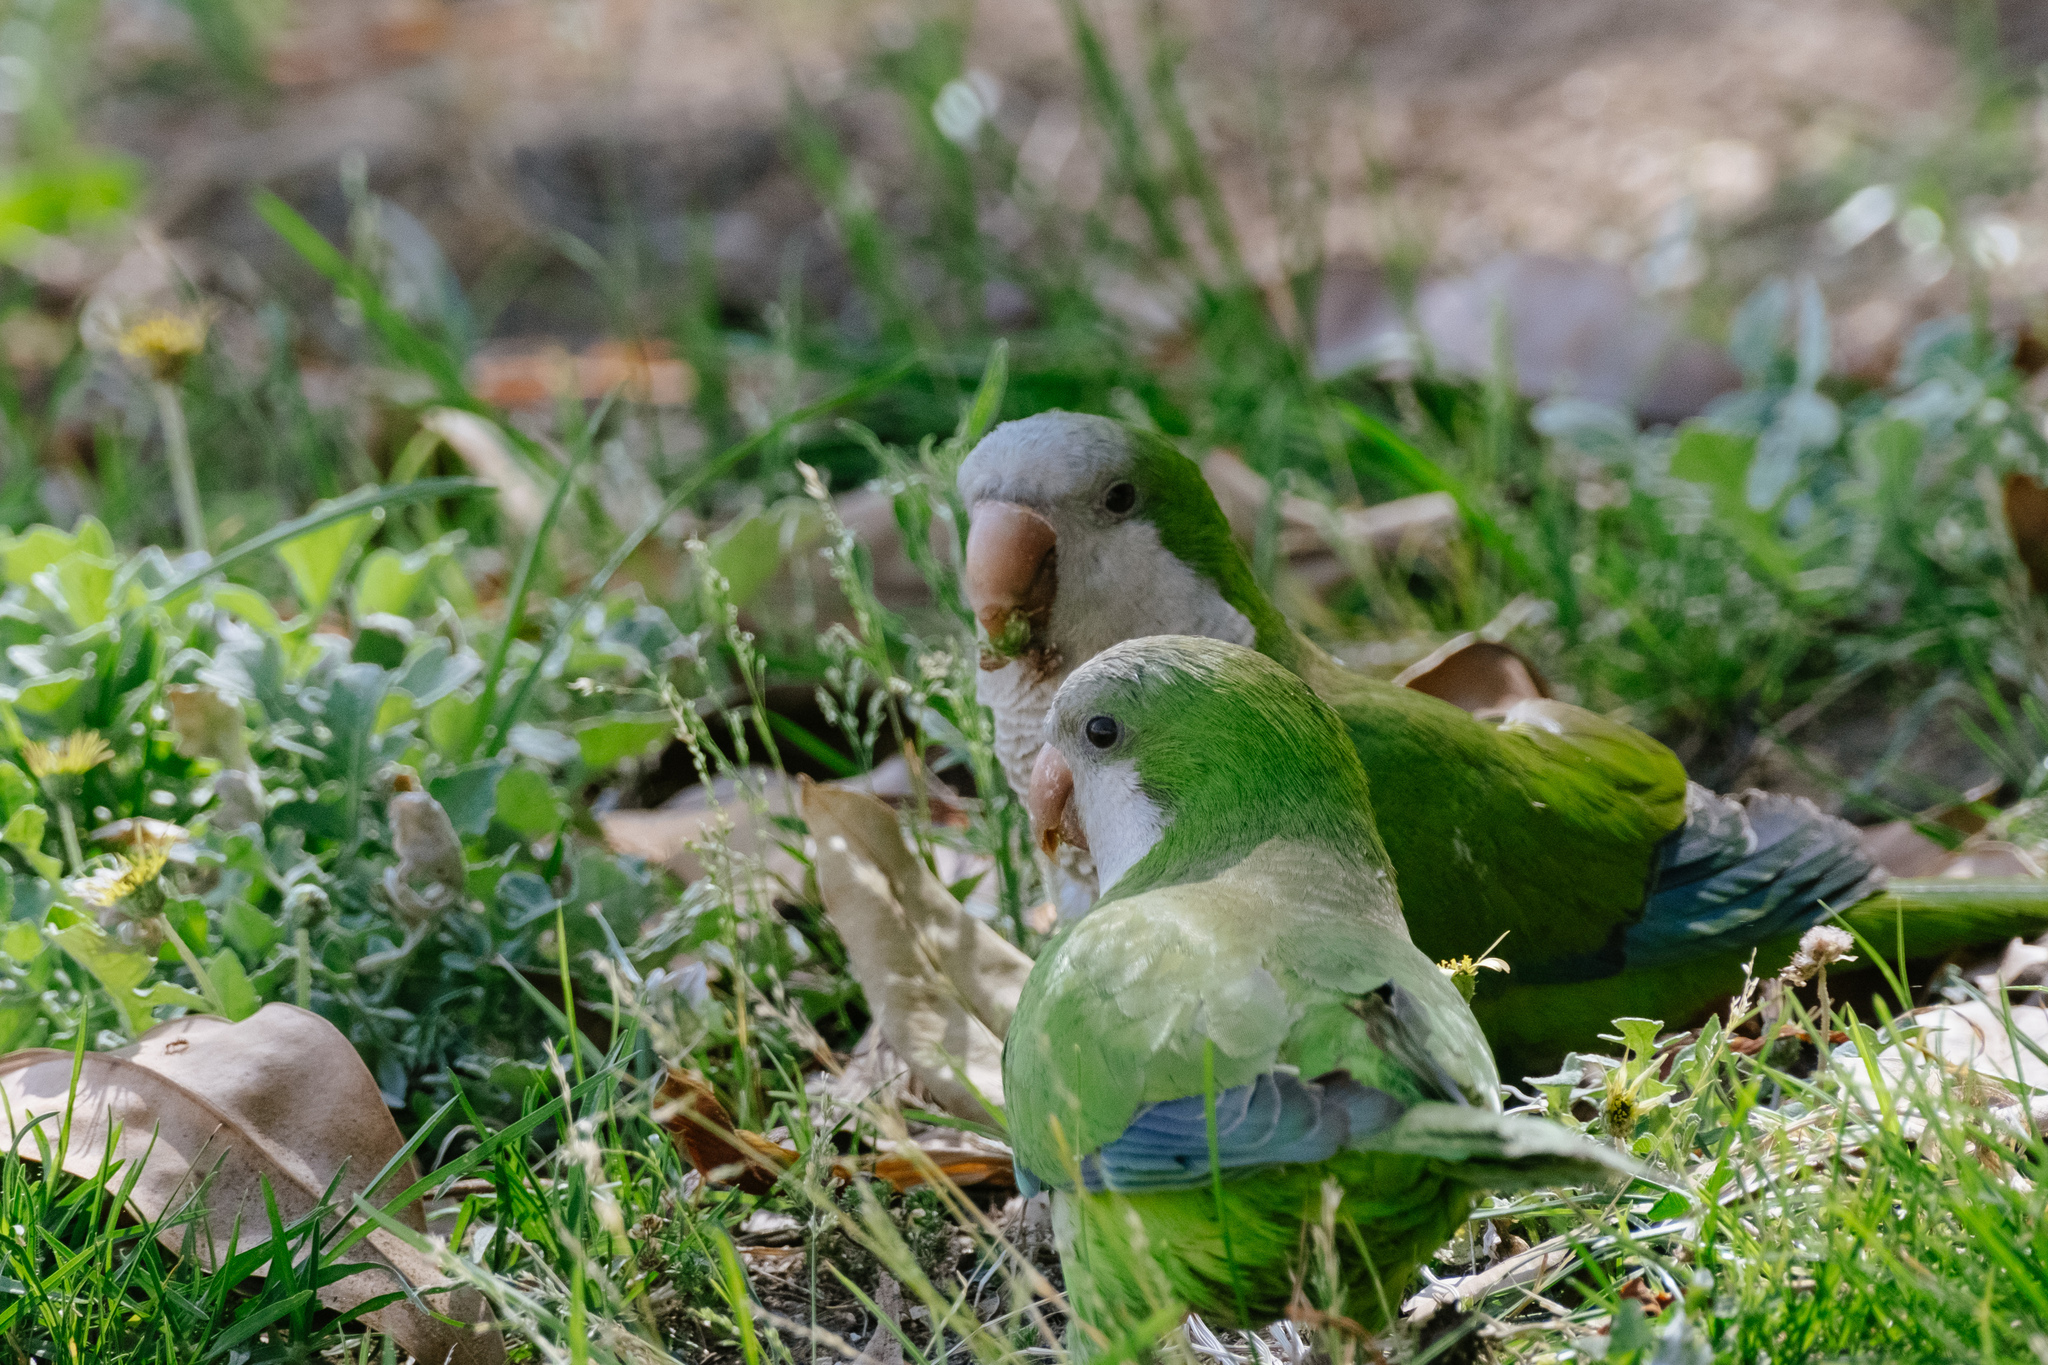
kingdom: Animalia
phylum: Chordata
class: Aves
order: Psittaciformes
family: Psittacidae
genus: Myiopsitta
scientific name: Myiopsitta monachus
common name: Monk parakeet
